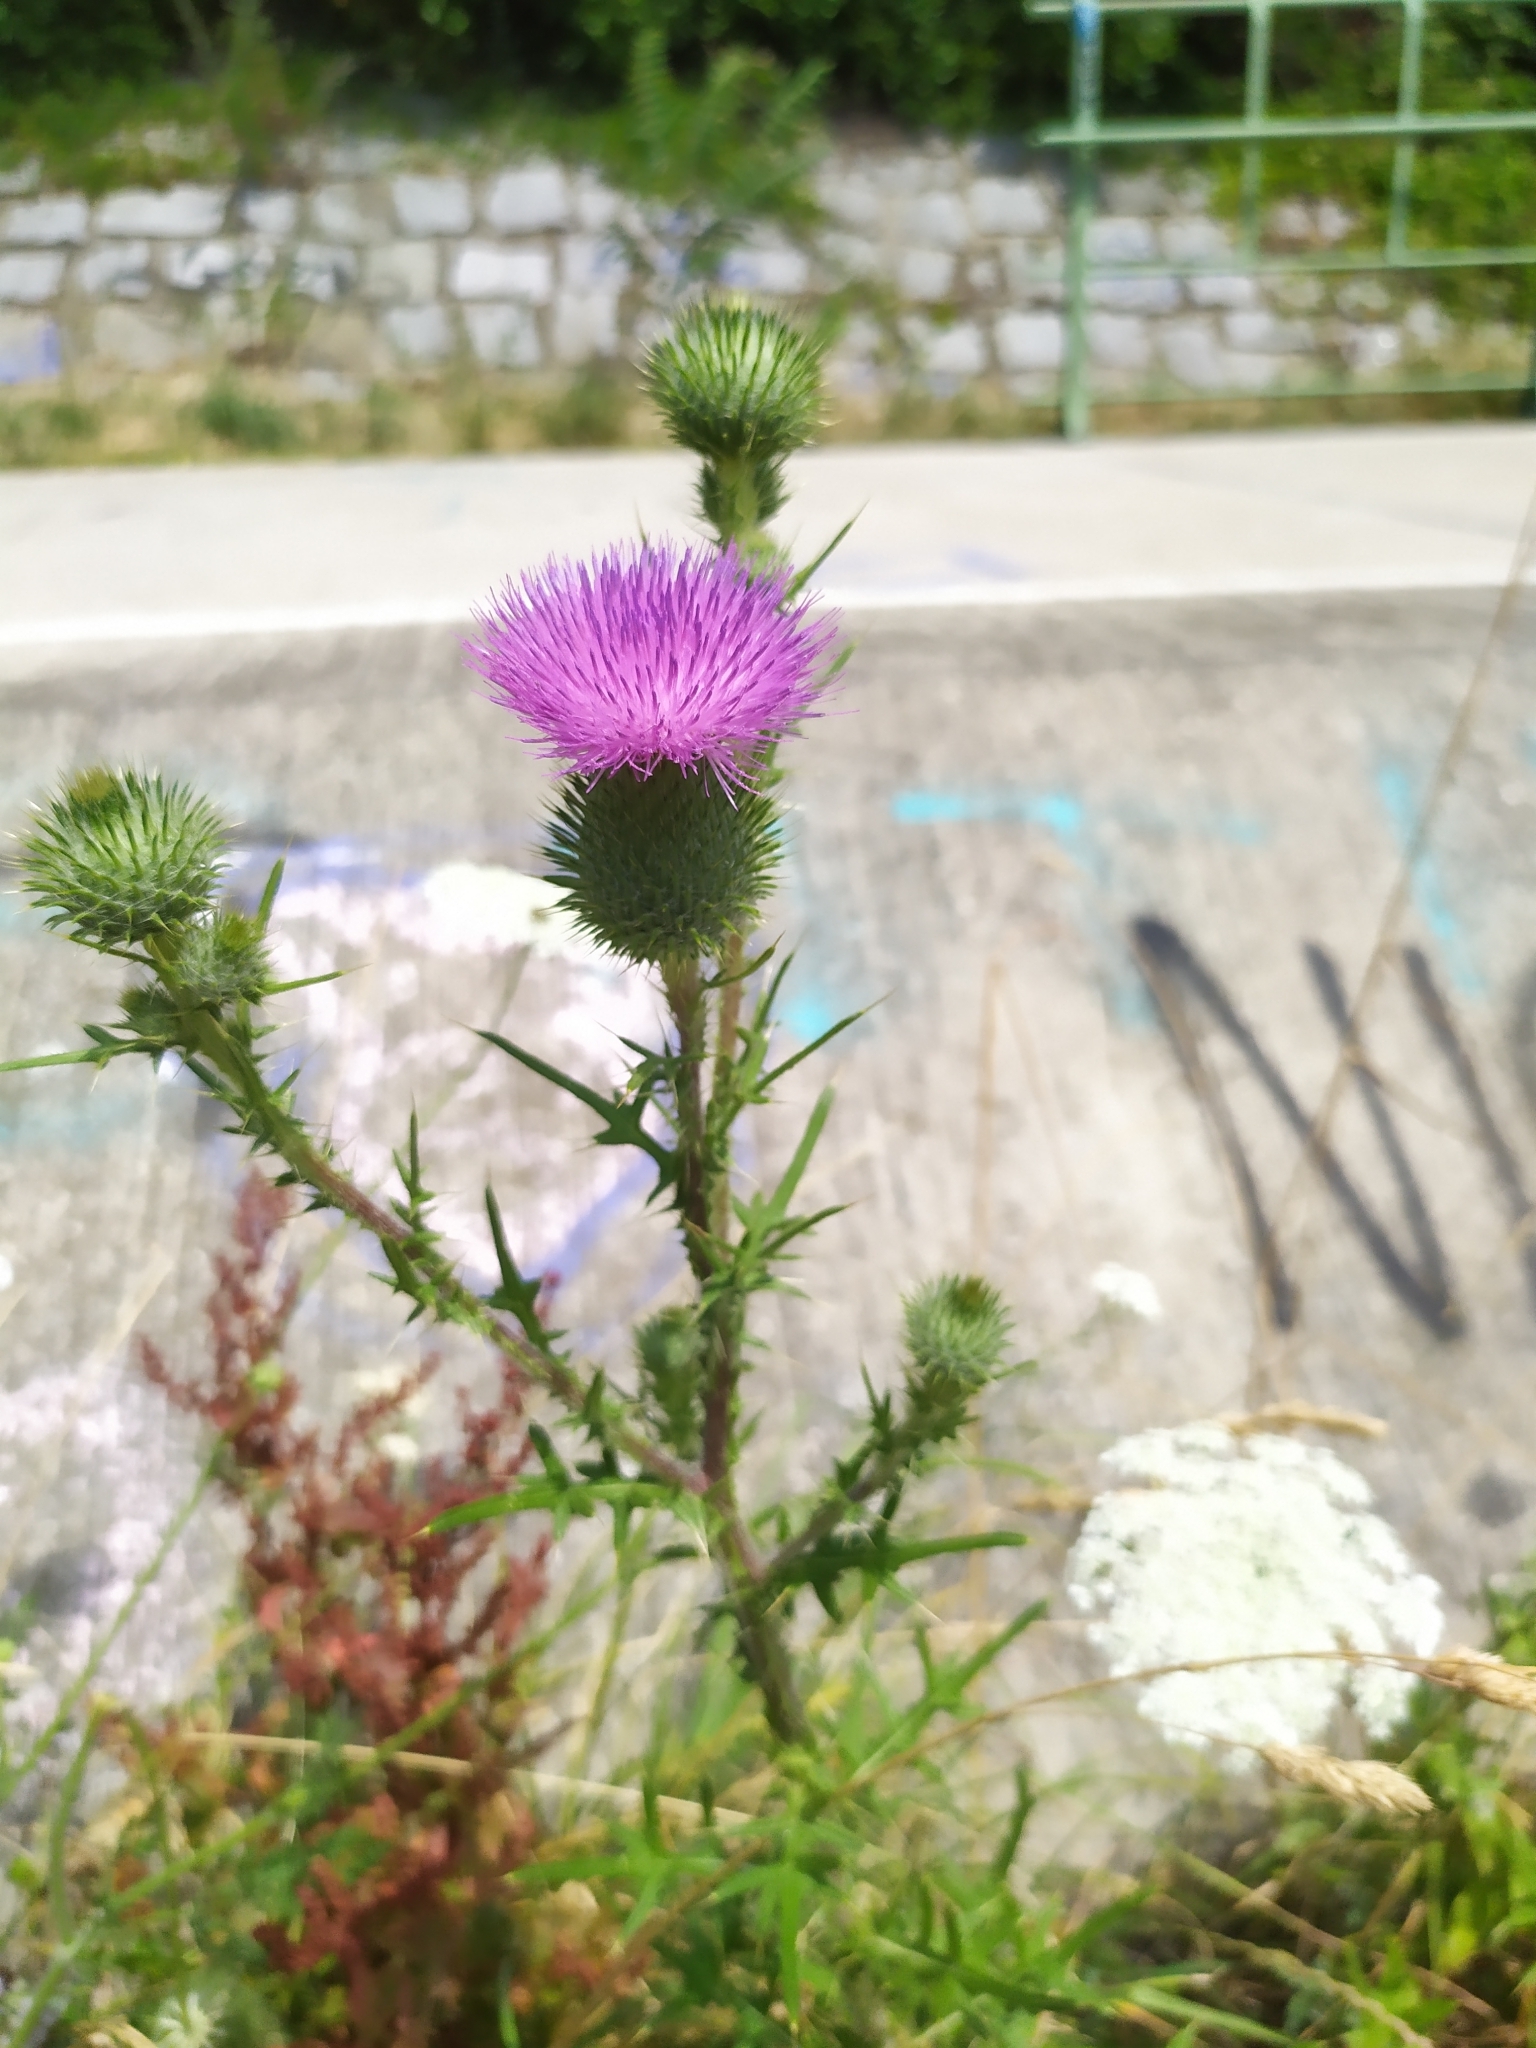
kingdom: Plantae
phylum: Tracheophyta
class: Magnoliopsida
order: Asterales
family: Asteraceae
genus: Cirsium
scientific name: Cirsium vulgare
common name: Bull thistle
